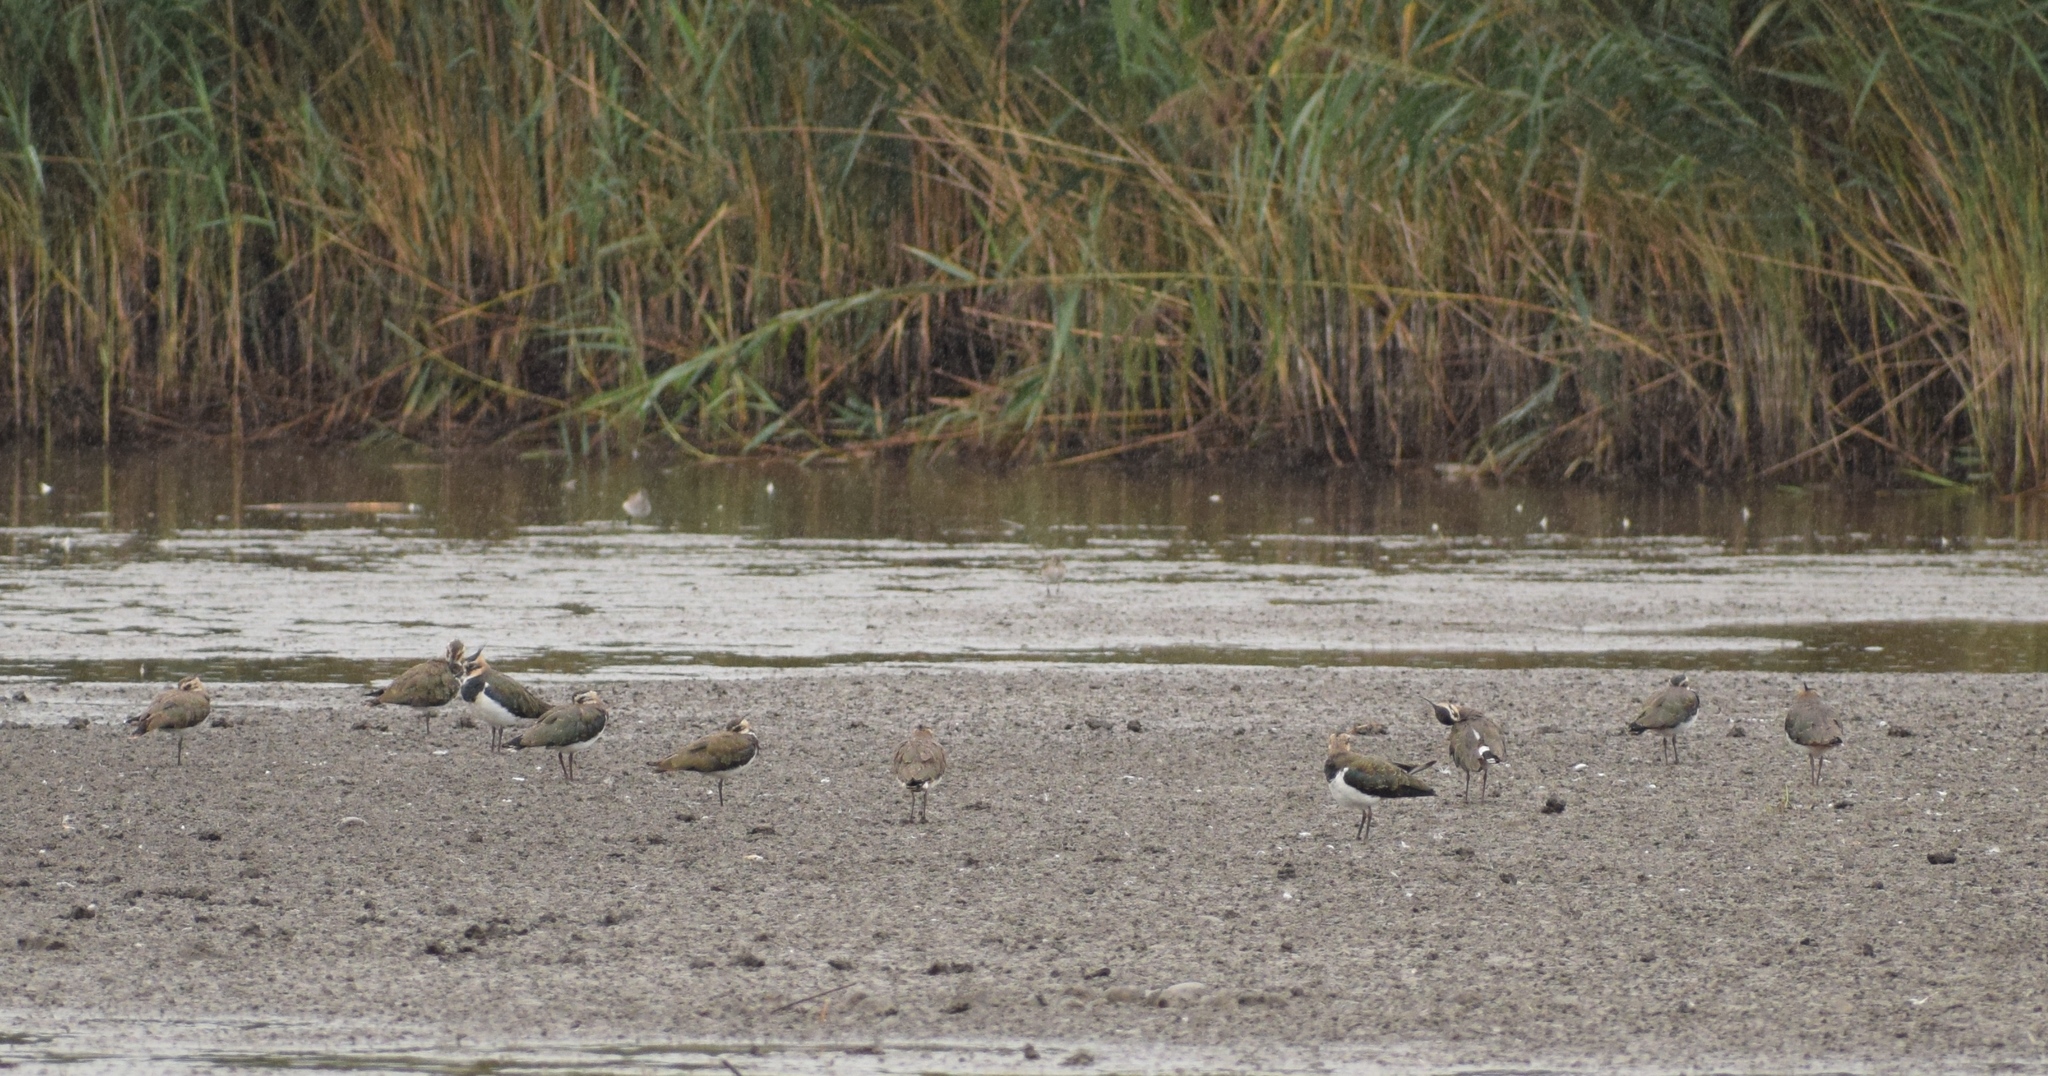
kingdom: Animalia
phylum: Chordata
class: Aves
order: Charadriiformes
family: Charadriidae
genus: Vanellus
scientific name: Vanellus vanellus
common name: Northern lapwing
